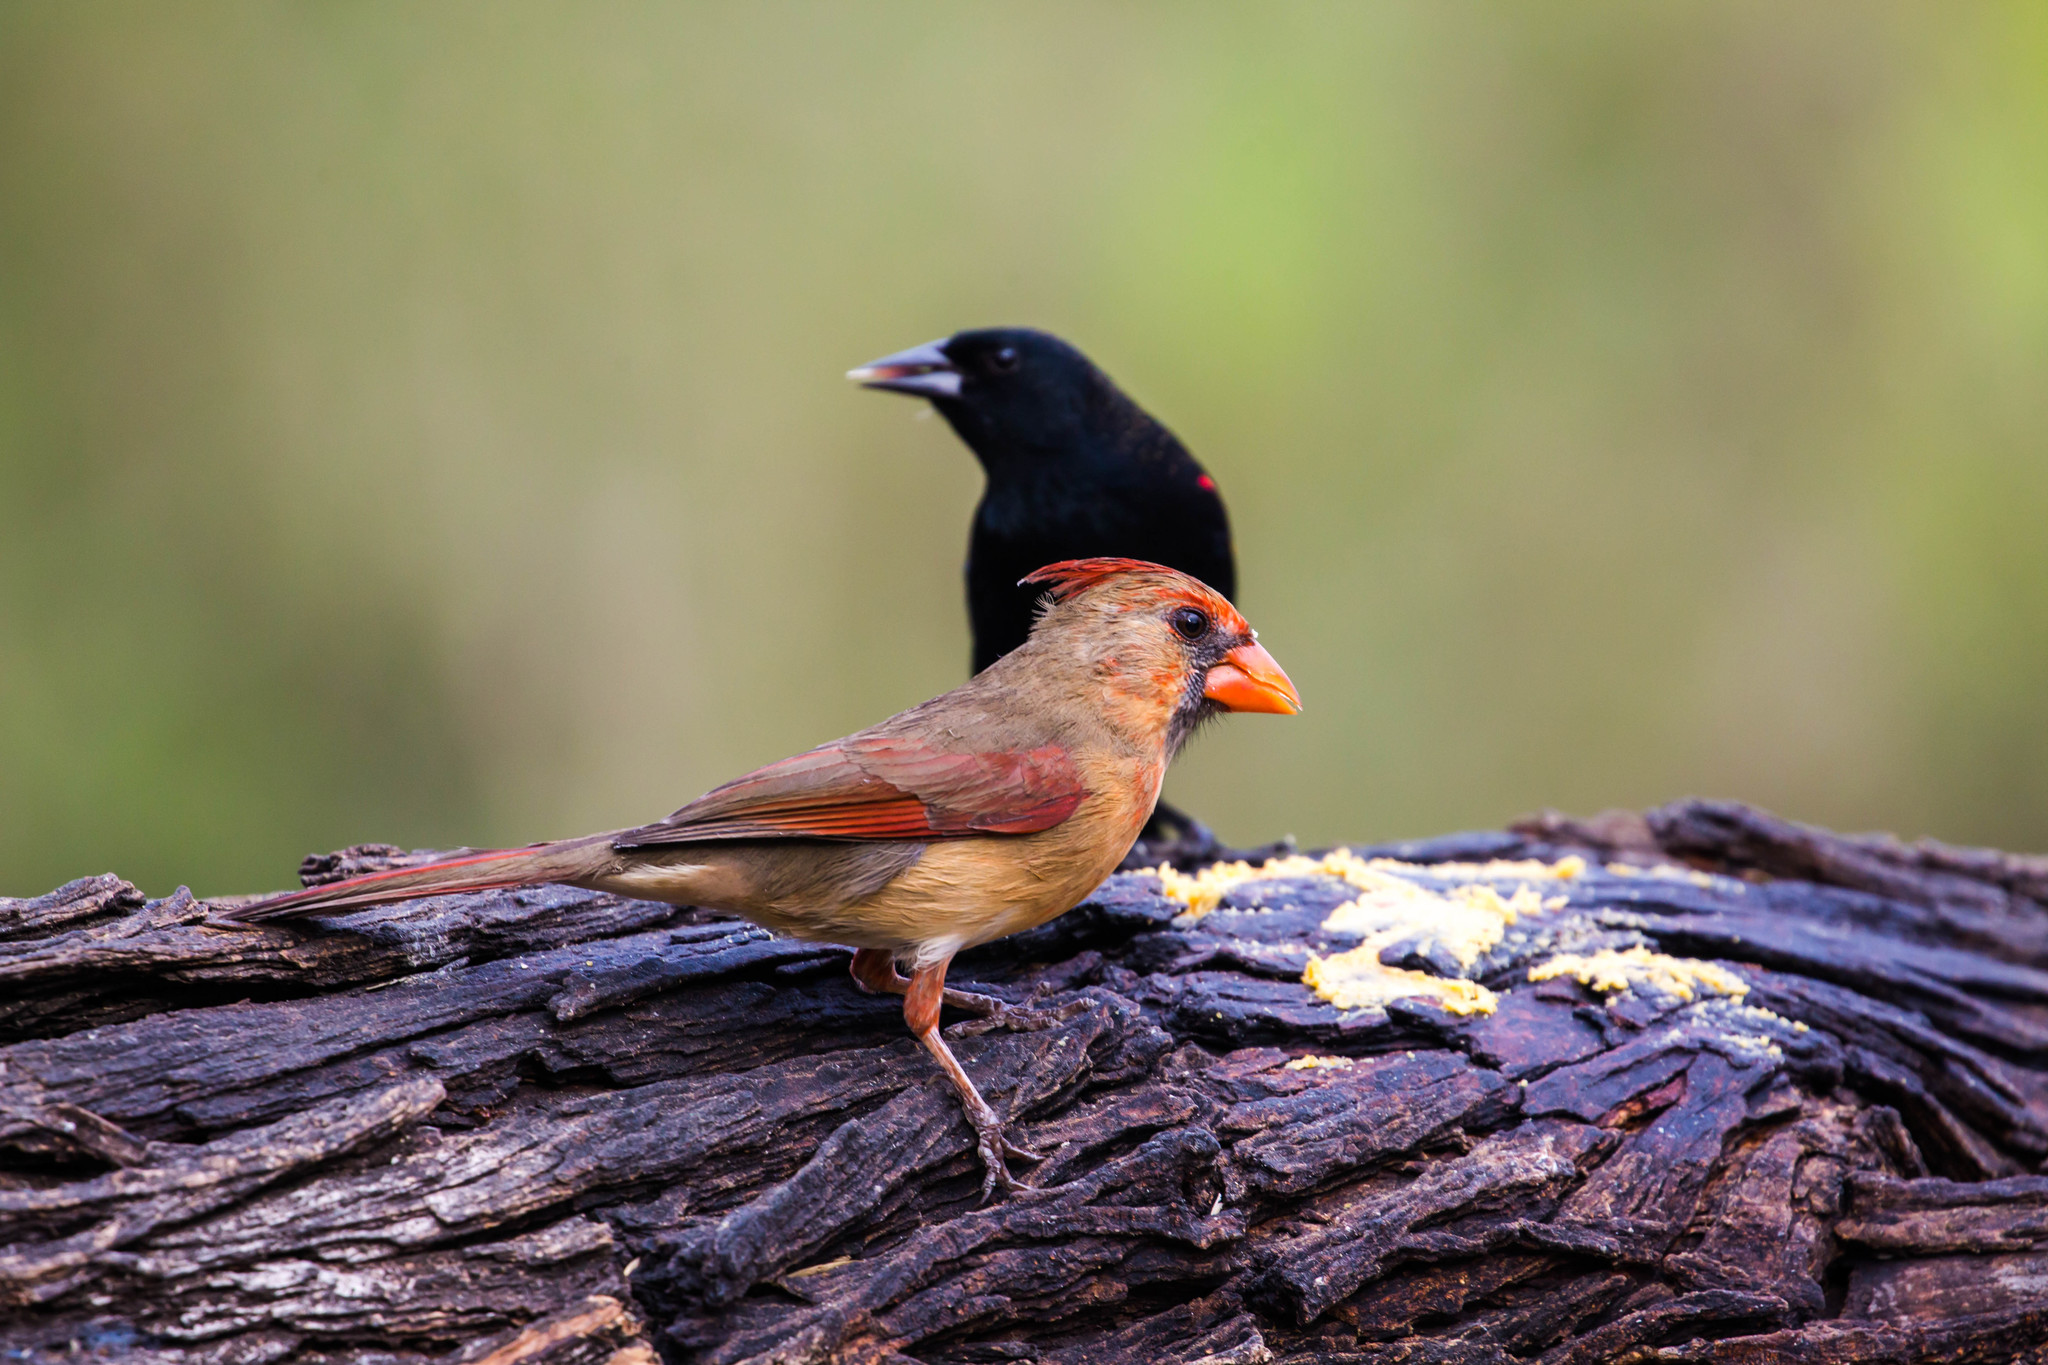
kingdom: Animalia
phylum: Chordata
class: Aves
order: Passeriformes
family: Cardinalidae
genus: Cardinalis
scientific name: Cardinalis cardinalis
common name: Northern cardinal
